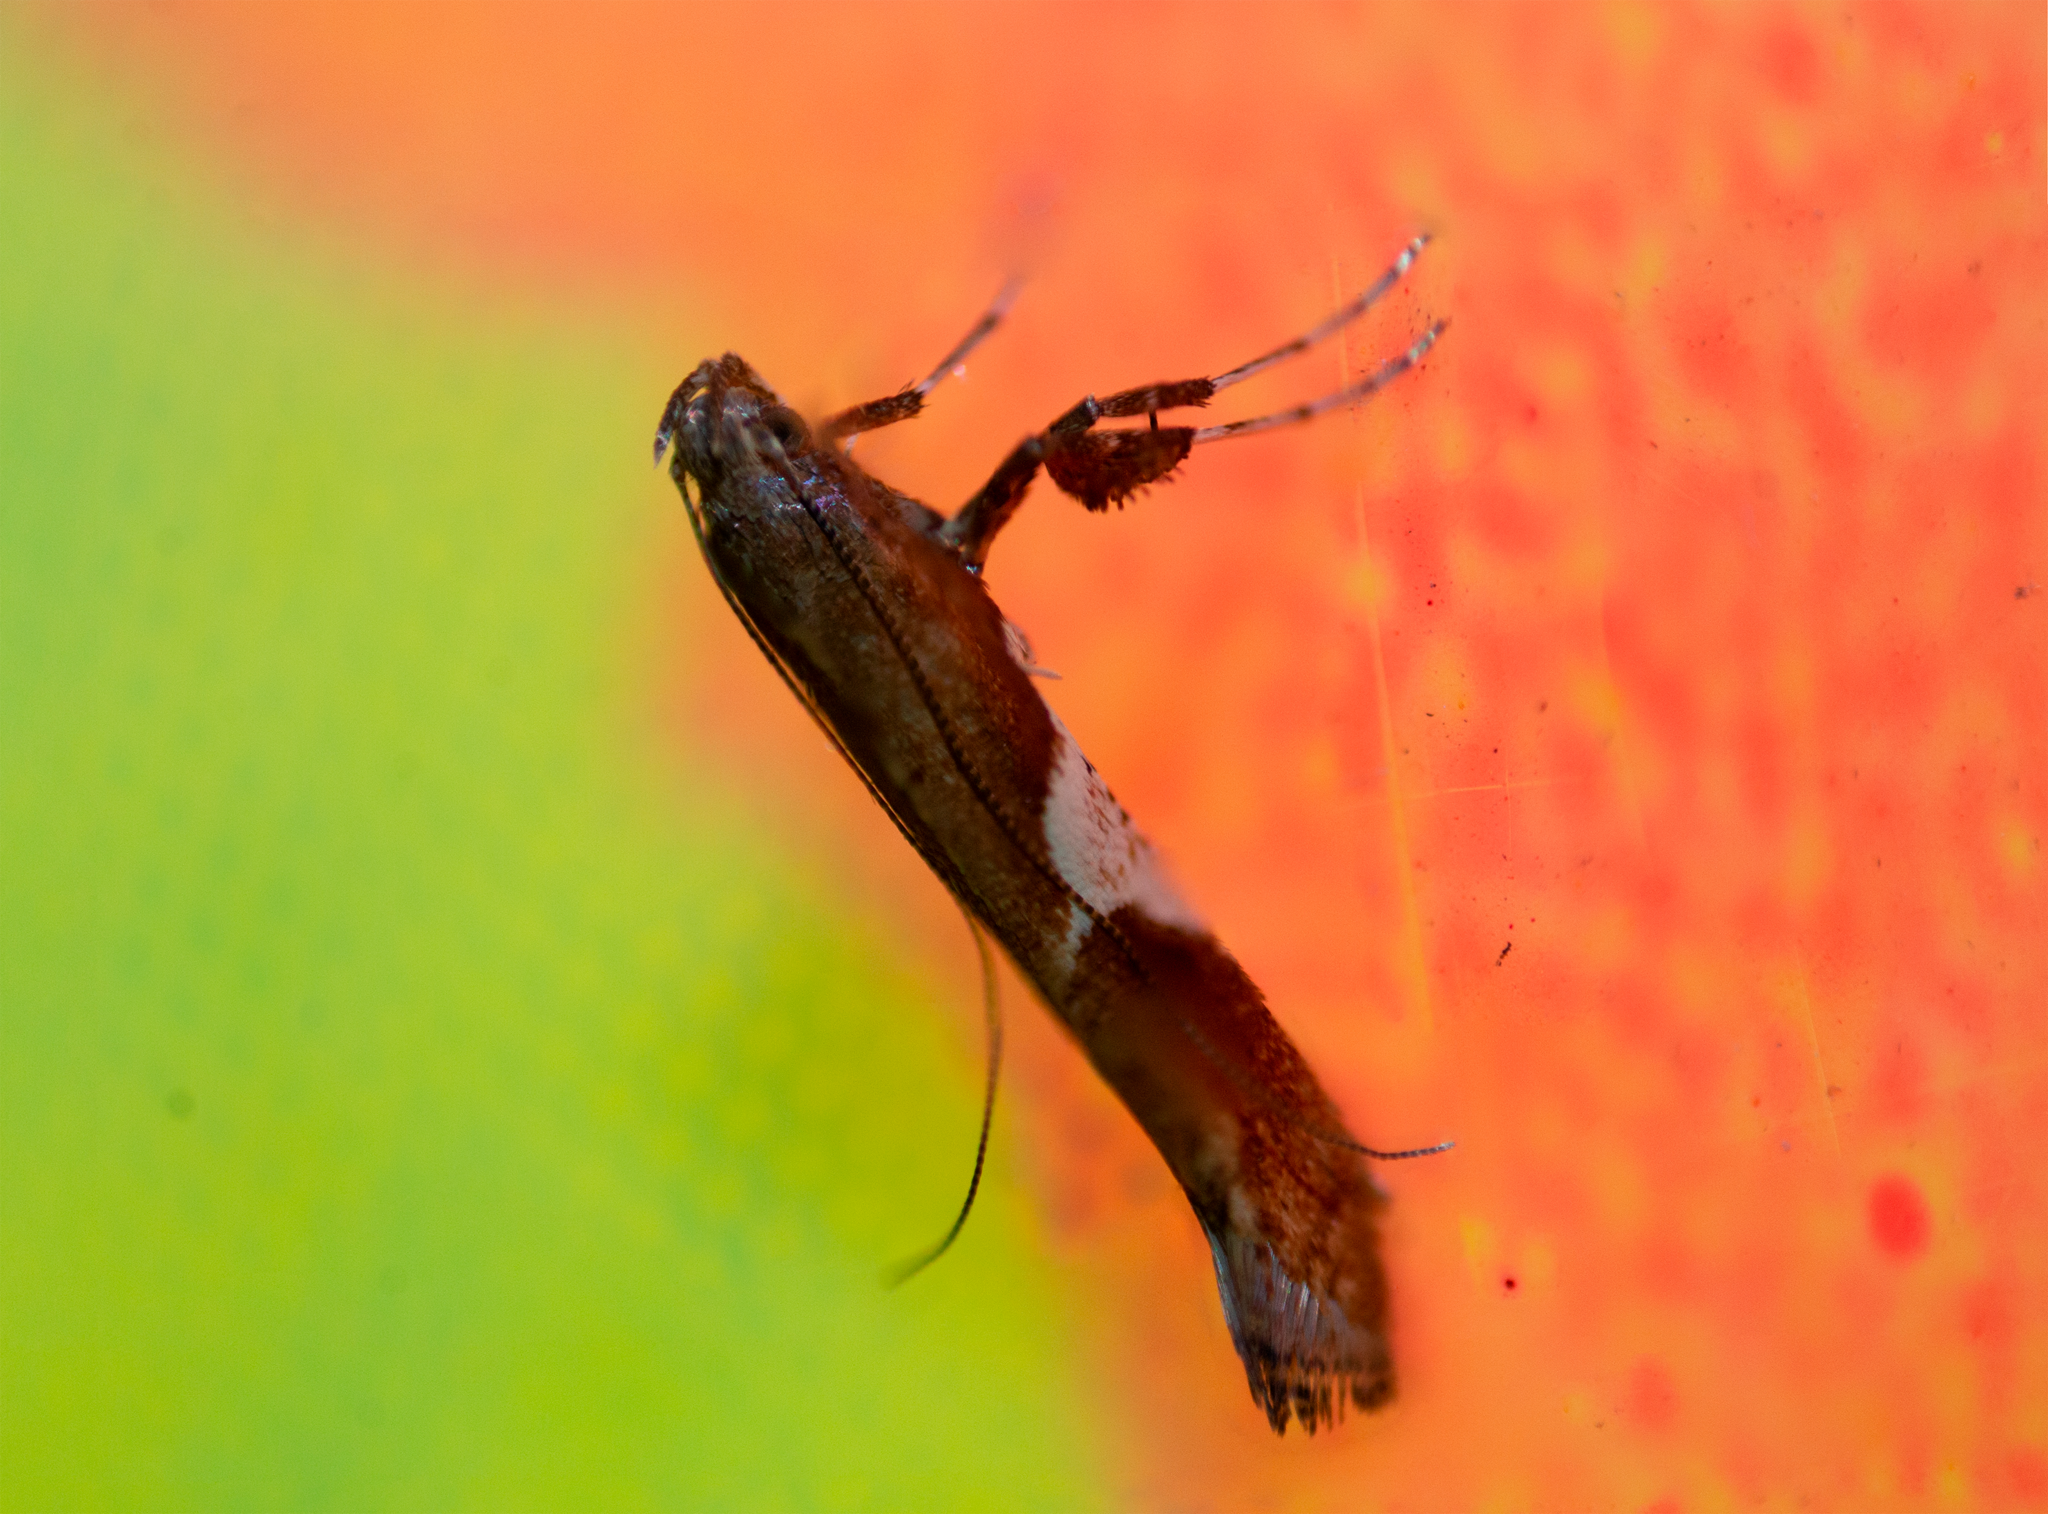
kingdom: Animalia
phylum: Arthropoda
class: Insecta
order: Lepidoptera
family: Gracillariidae
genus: Caloptilia
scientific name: Caloptilia stigmatella
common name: White-triangle slender
